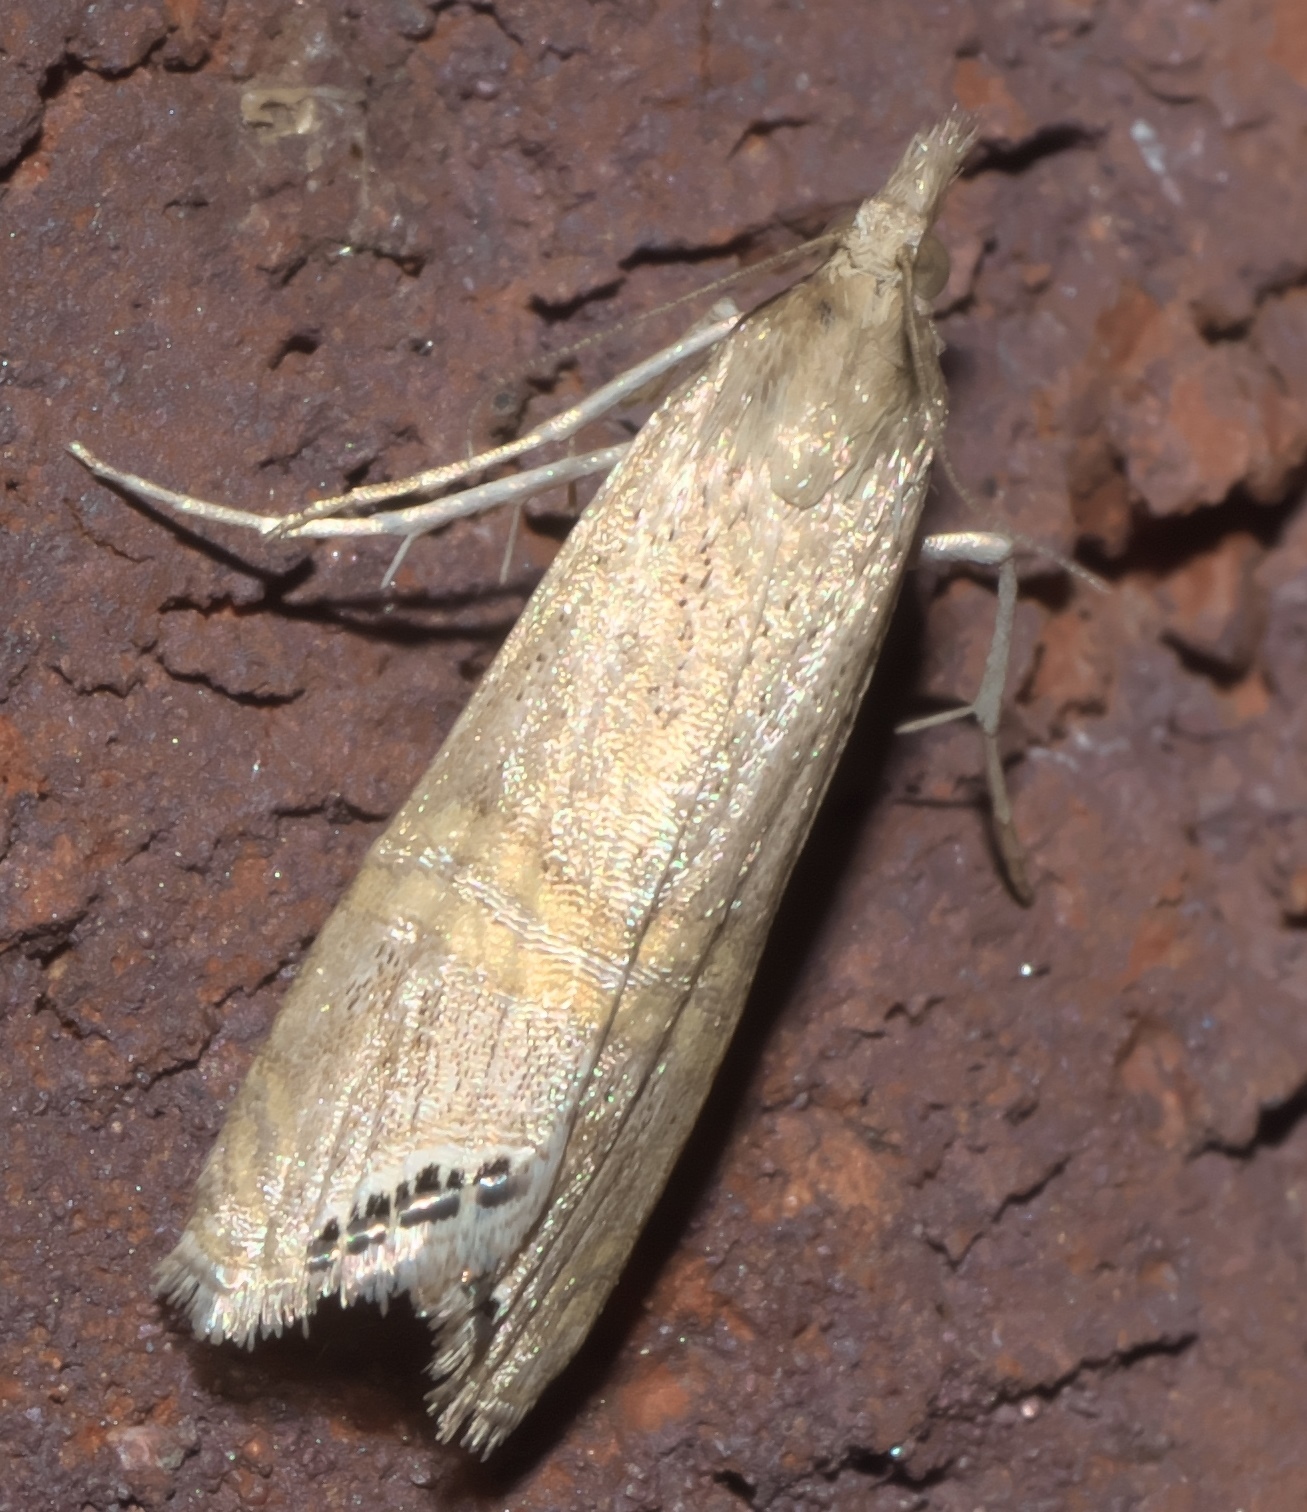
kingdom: Animalia
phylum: Arthropoda
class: Insecta
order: Lepidoptera
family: Crambidae
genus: Euchromius
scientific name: Euchromius ocellea
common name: Necklace veneer moth
